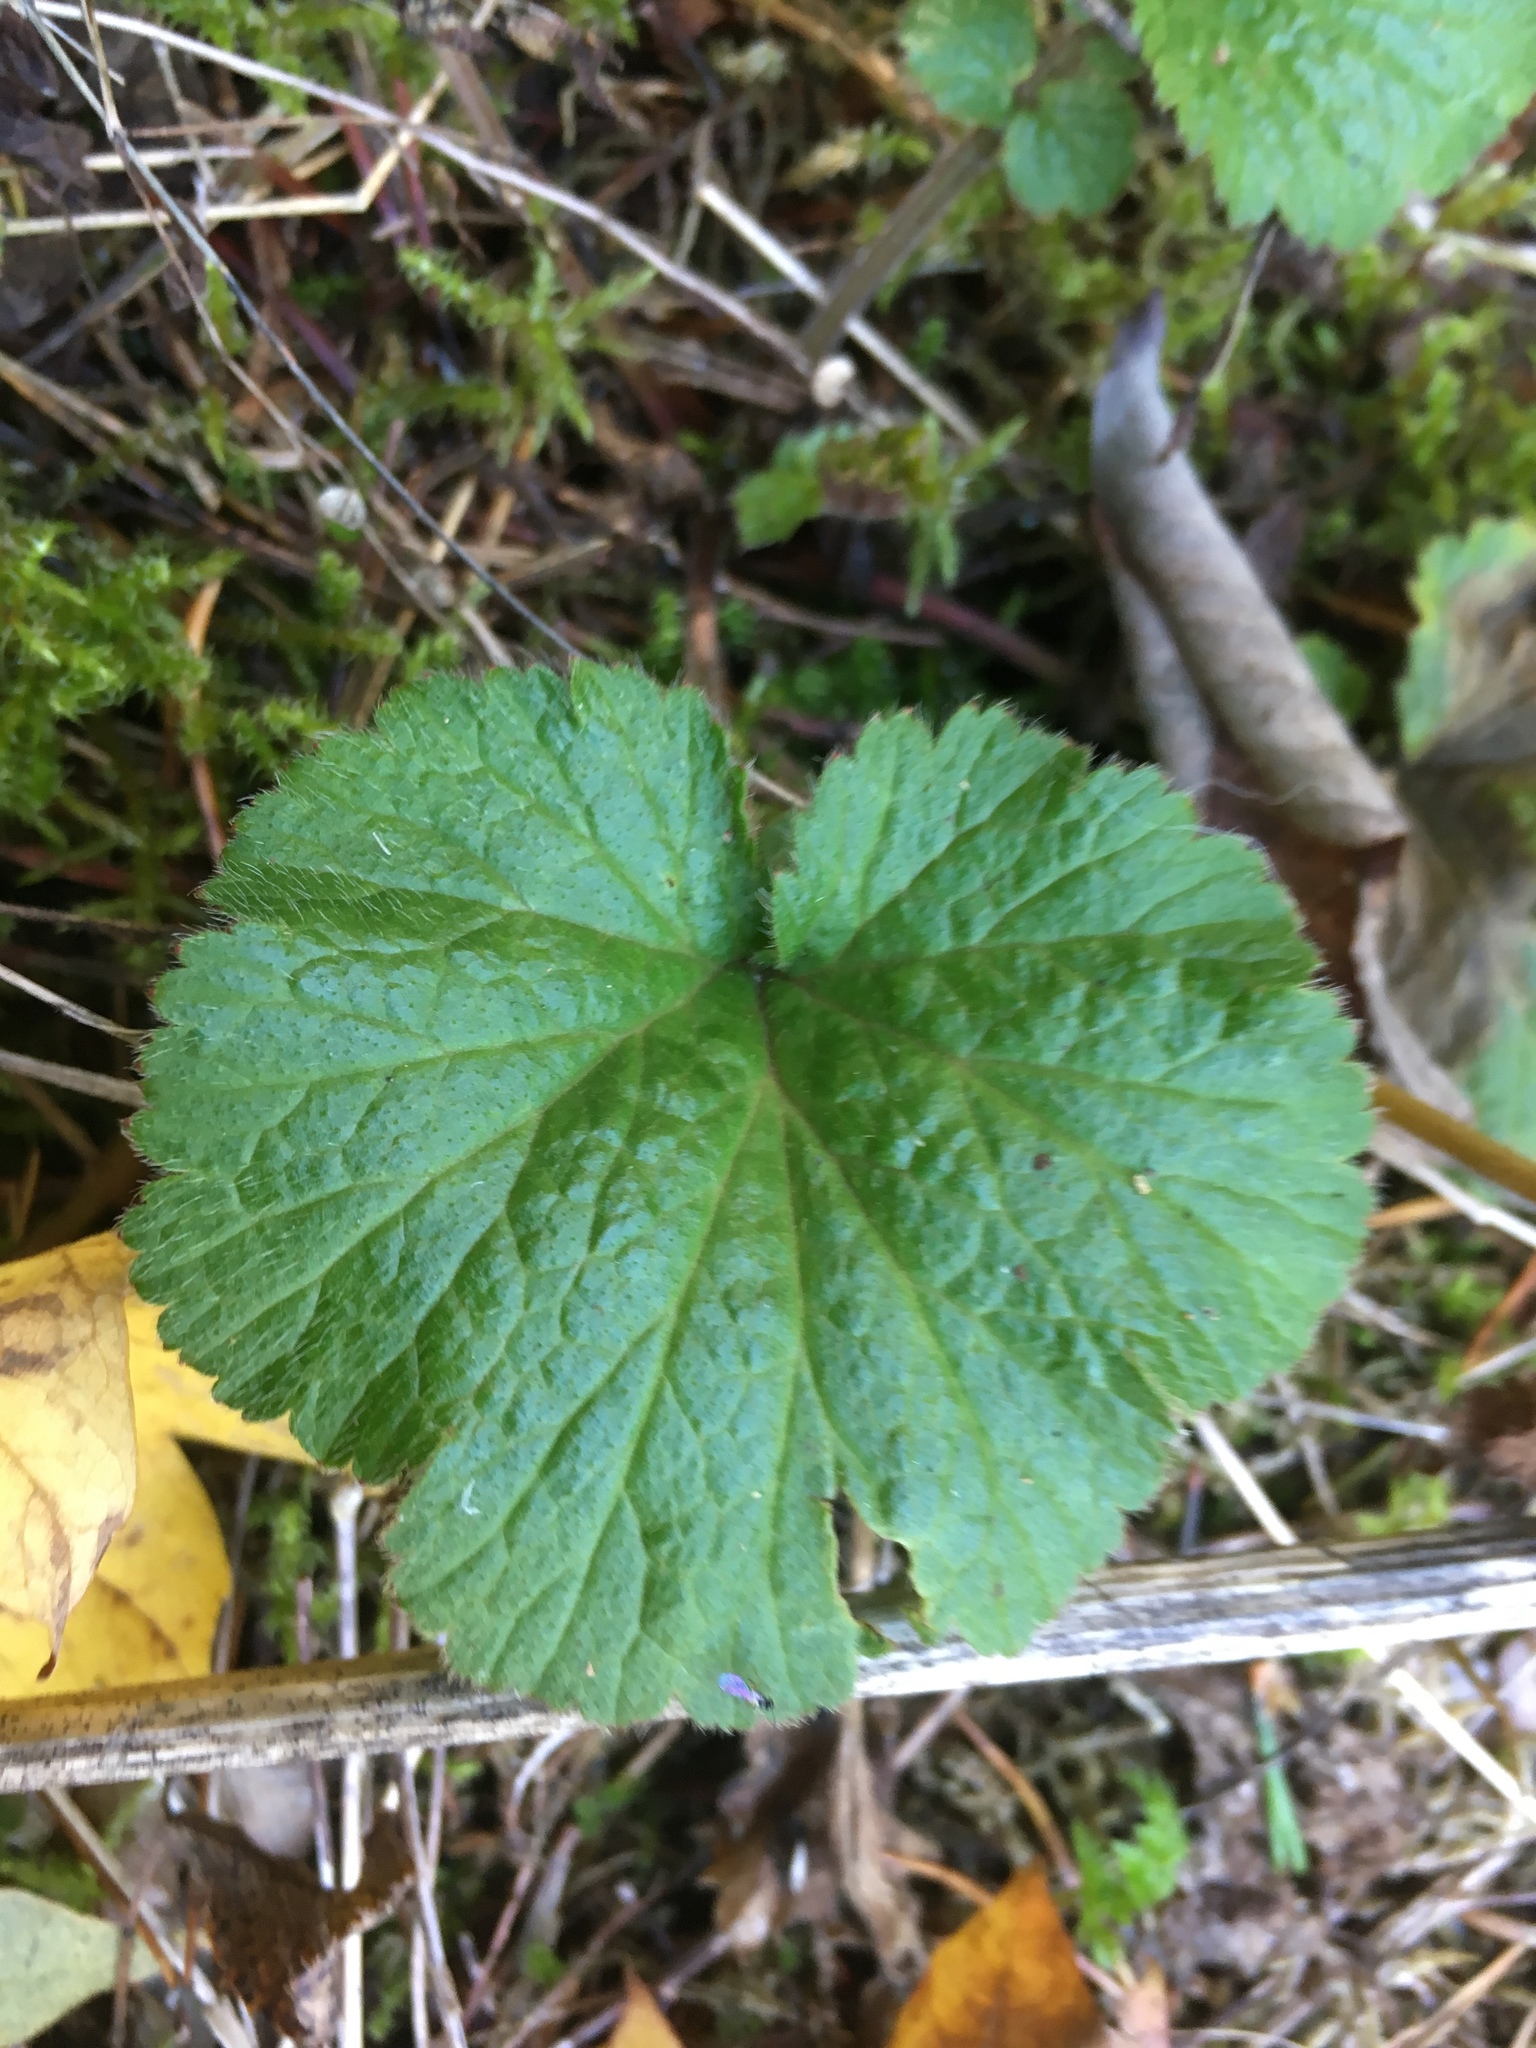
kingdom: Plantae
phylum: Tracheophyta
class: Magnoliopsida
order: Rosales
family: Rosaceae
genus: Geum
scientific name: Geum urbanum
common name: Wood avens
